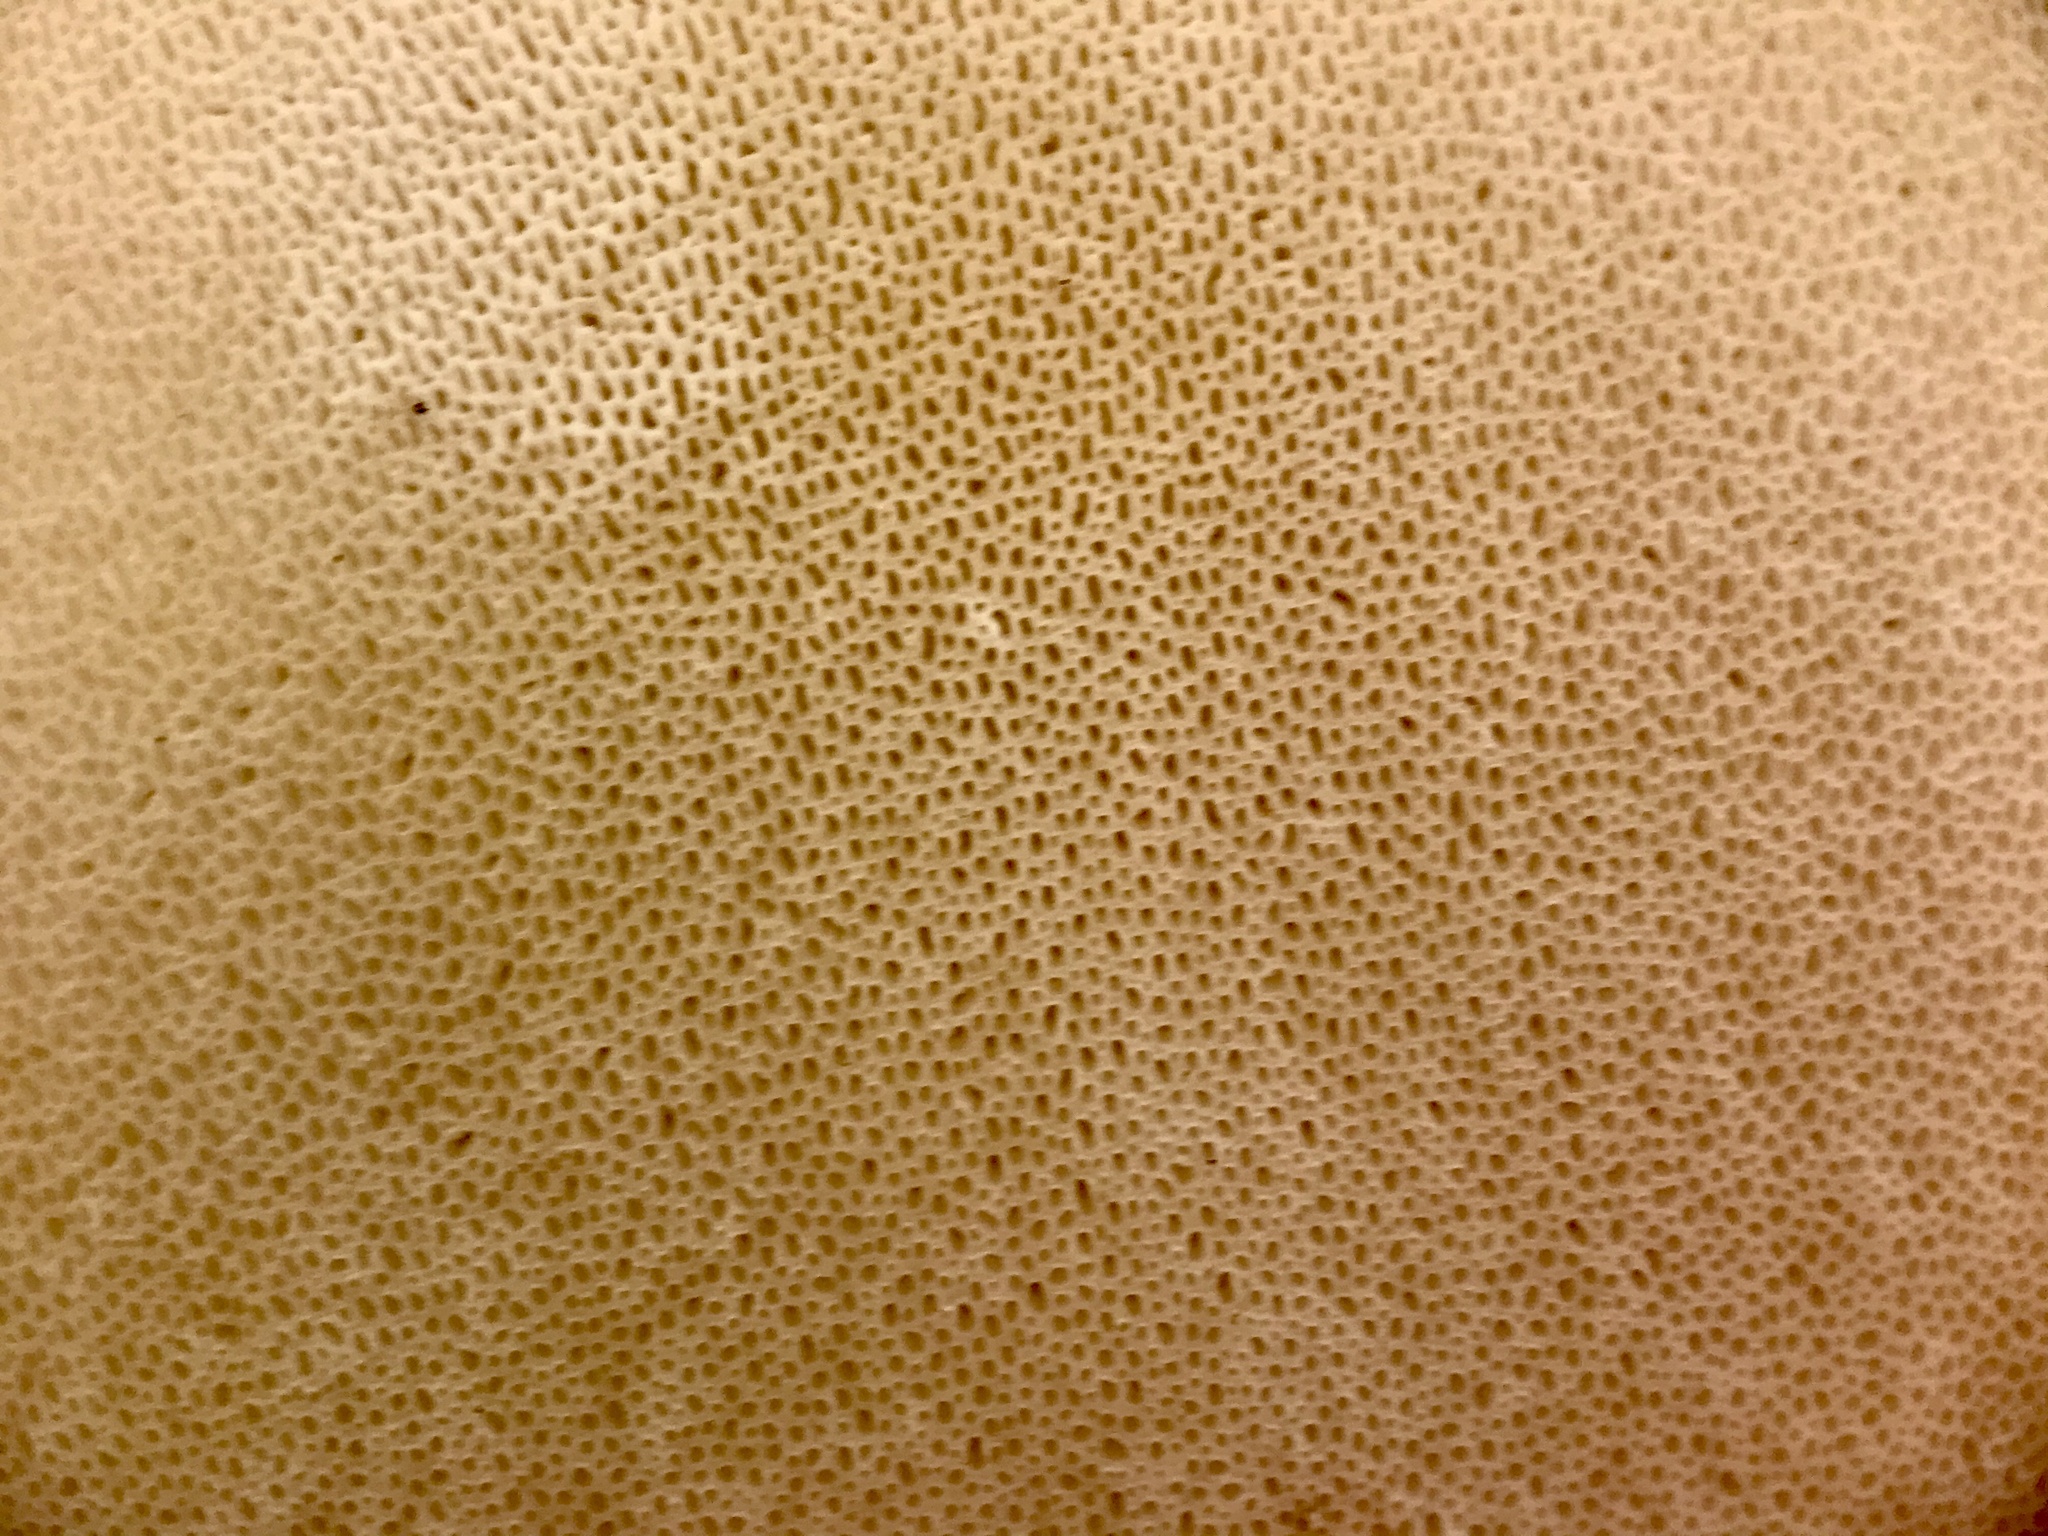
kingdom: Fungi
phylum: Basidiomycota
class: Agaricomycetes
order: Polyporales
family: Fomitopsidaceae
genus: Fomitopsis
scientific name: Fomitopsis betulina
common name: Birch polypore
